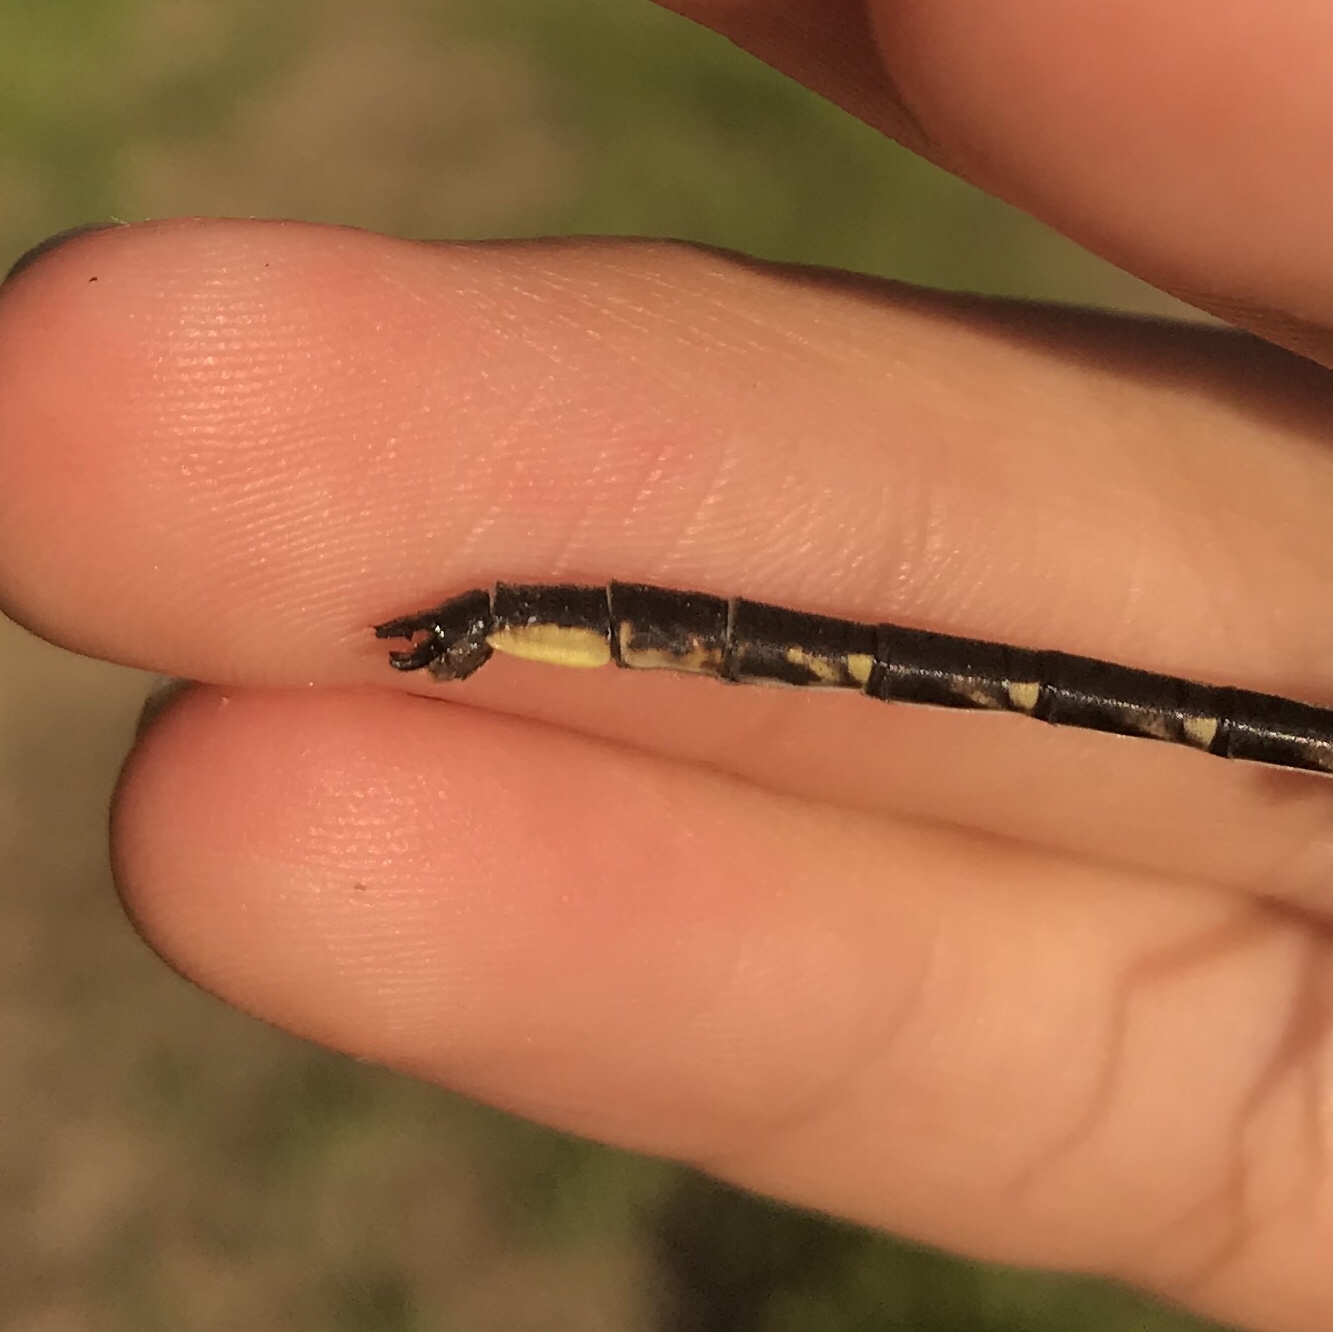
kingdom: Animalia
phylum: Arthropoda
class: Insecta
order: Odonata
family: Gomphidae
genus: Phanogomphus
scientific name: Phanogomphus spicatus
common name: Dusky clubtail
